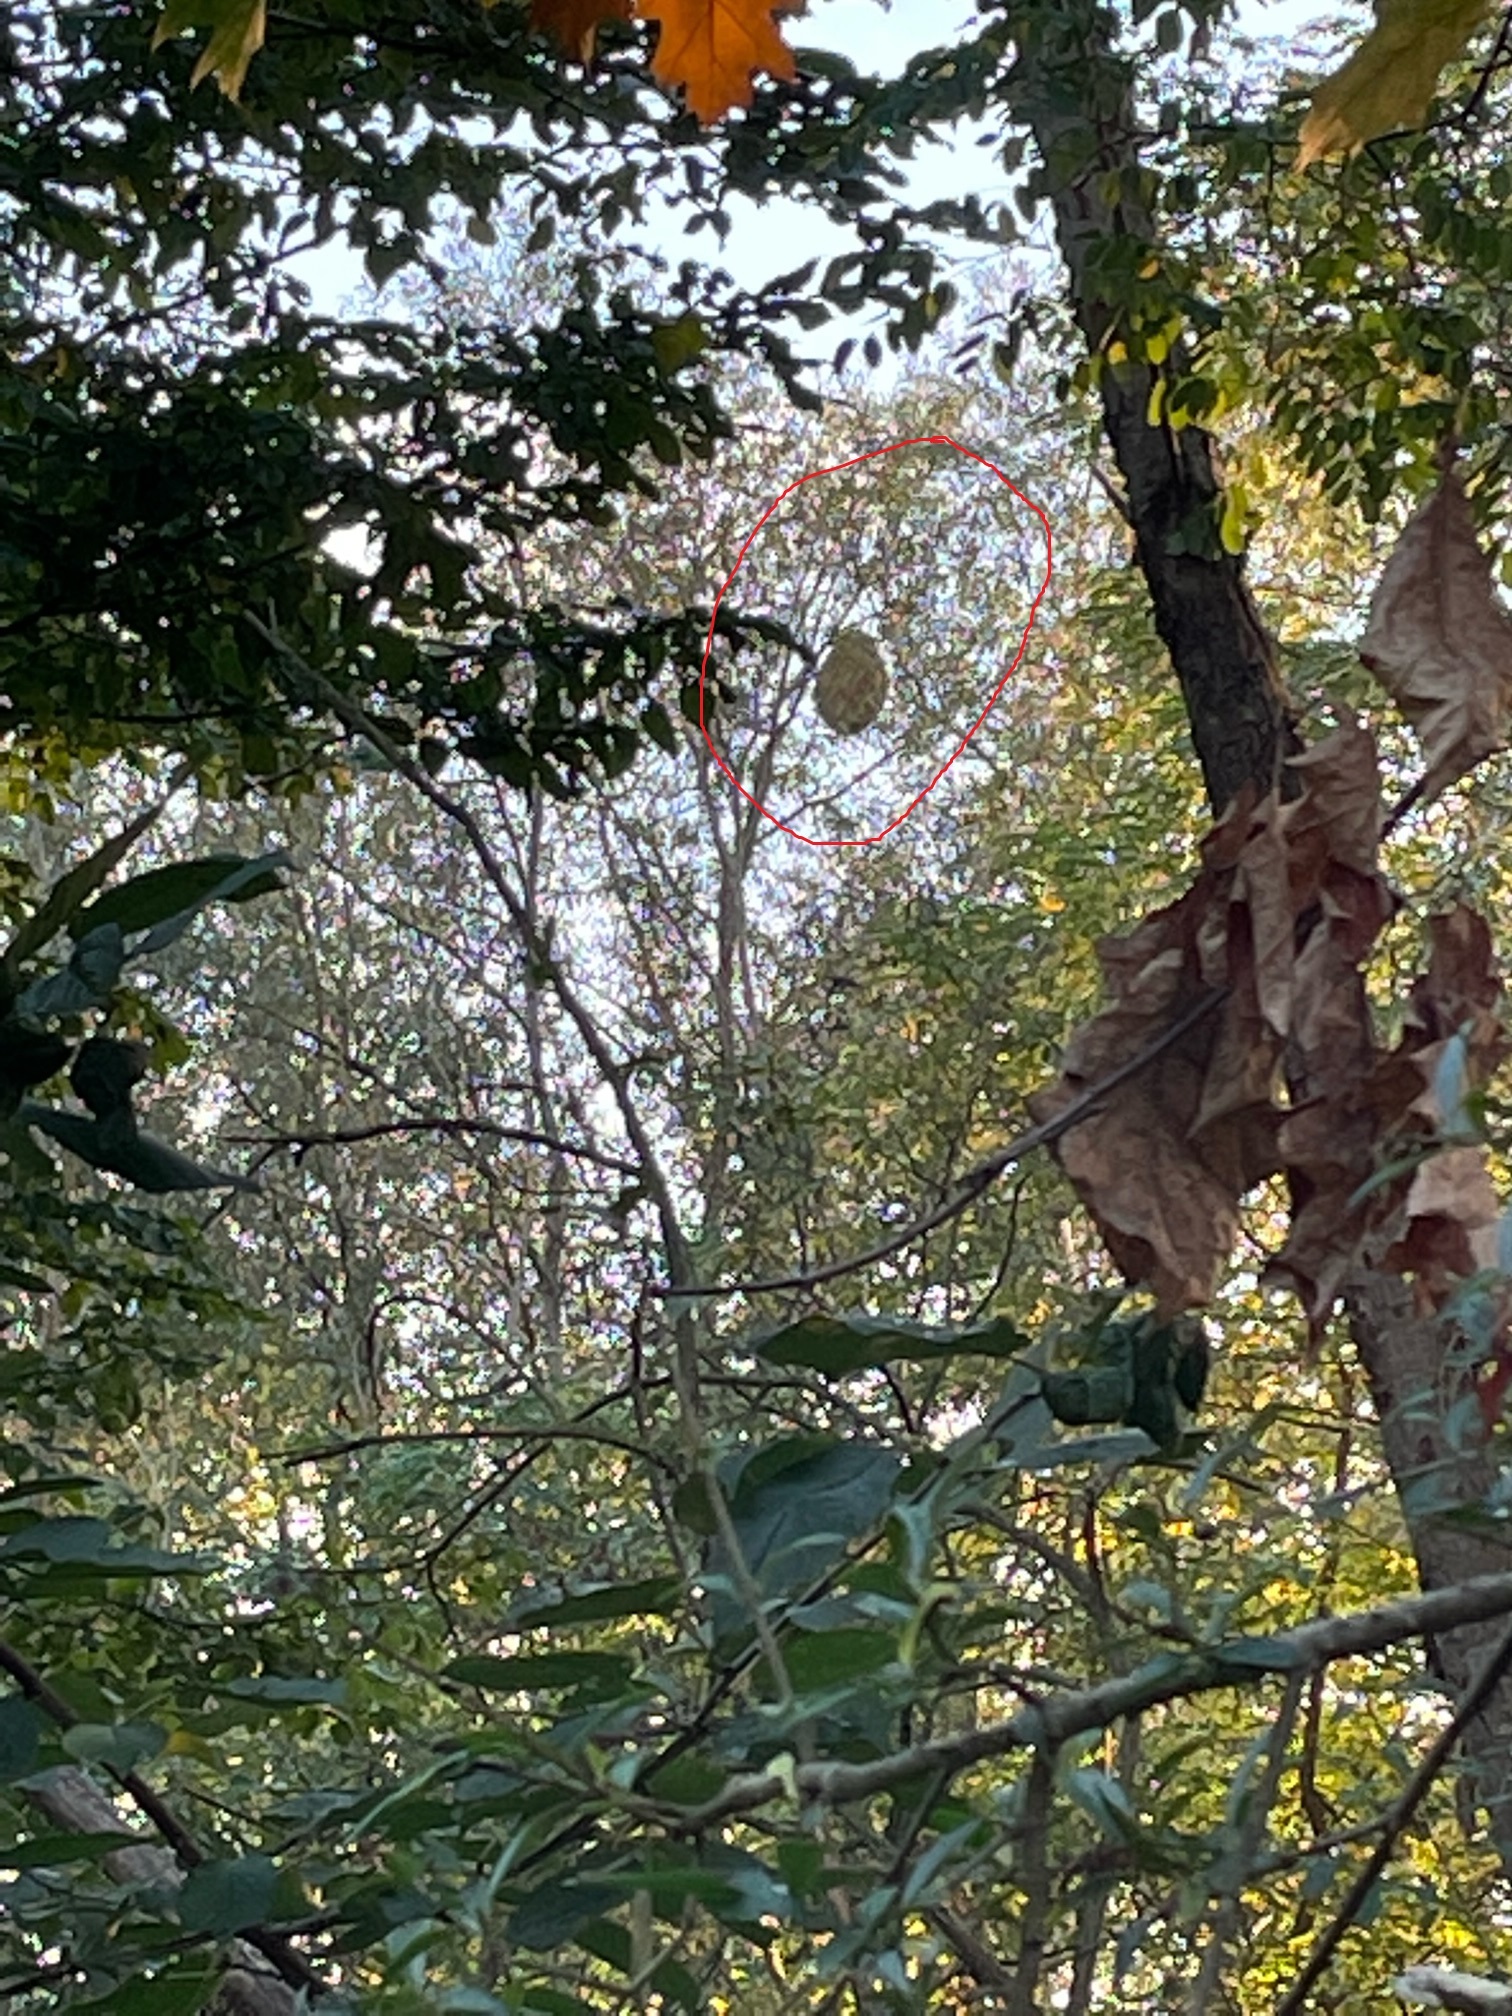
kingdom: Animalia
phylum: Arthropoda
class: Insecta
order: Hymenoptera
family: Vespidae
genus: Vespa
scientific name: Vespa velutina
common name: Asian hornet
